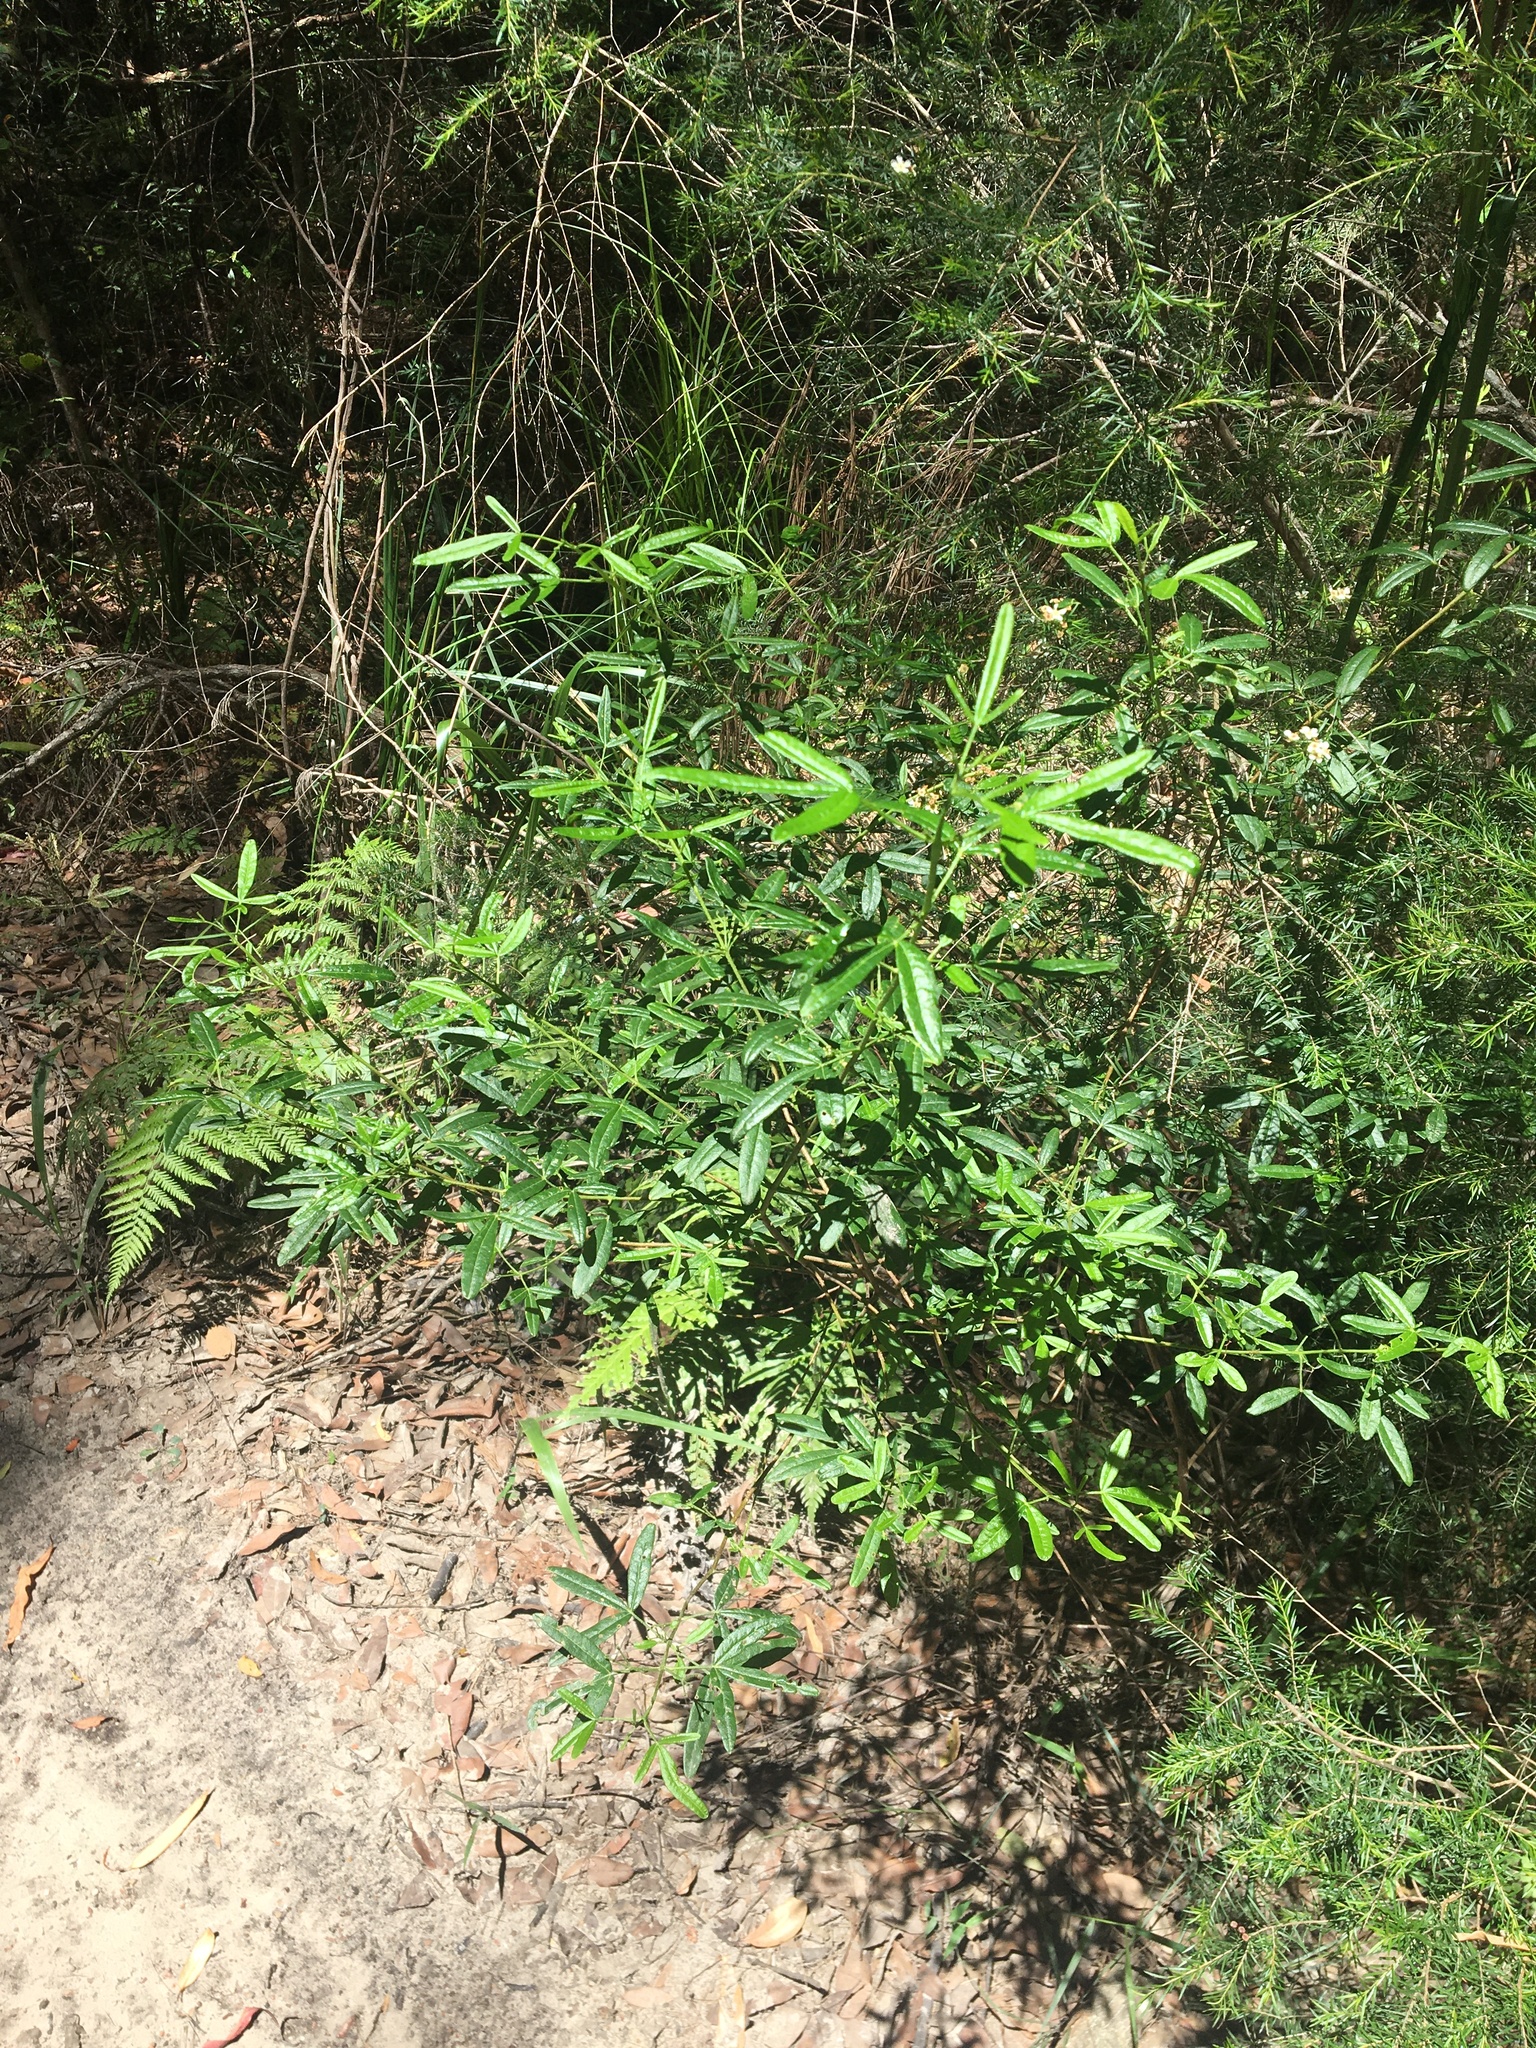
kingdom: Plantae
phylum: Tracheophyta
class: Magnoliopsida
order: Sapindales
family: Rutaceae
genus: Zieria
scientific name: Zieria smithii
